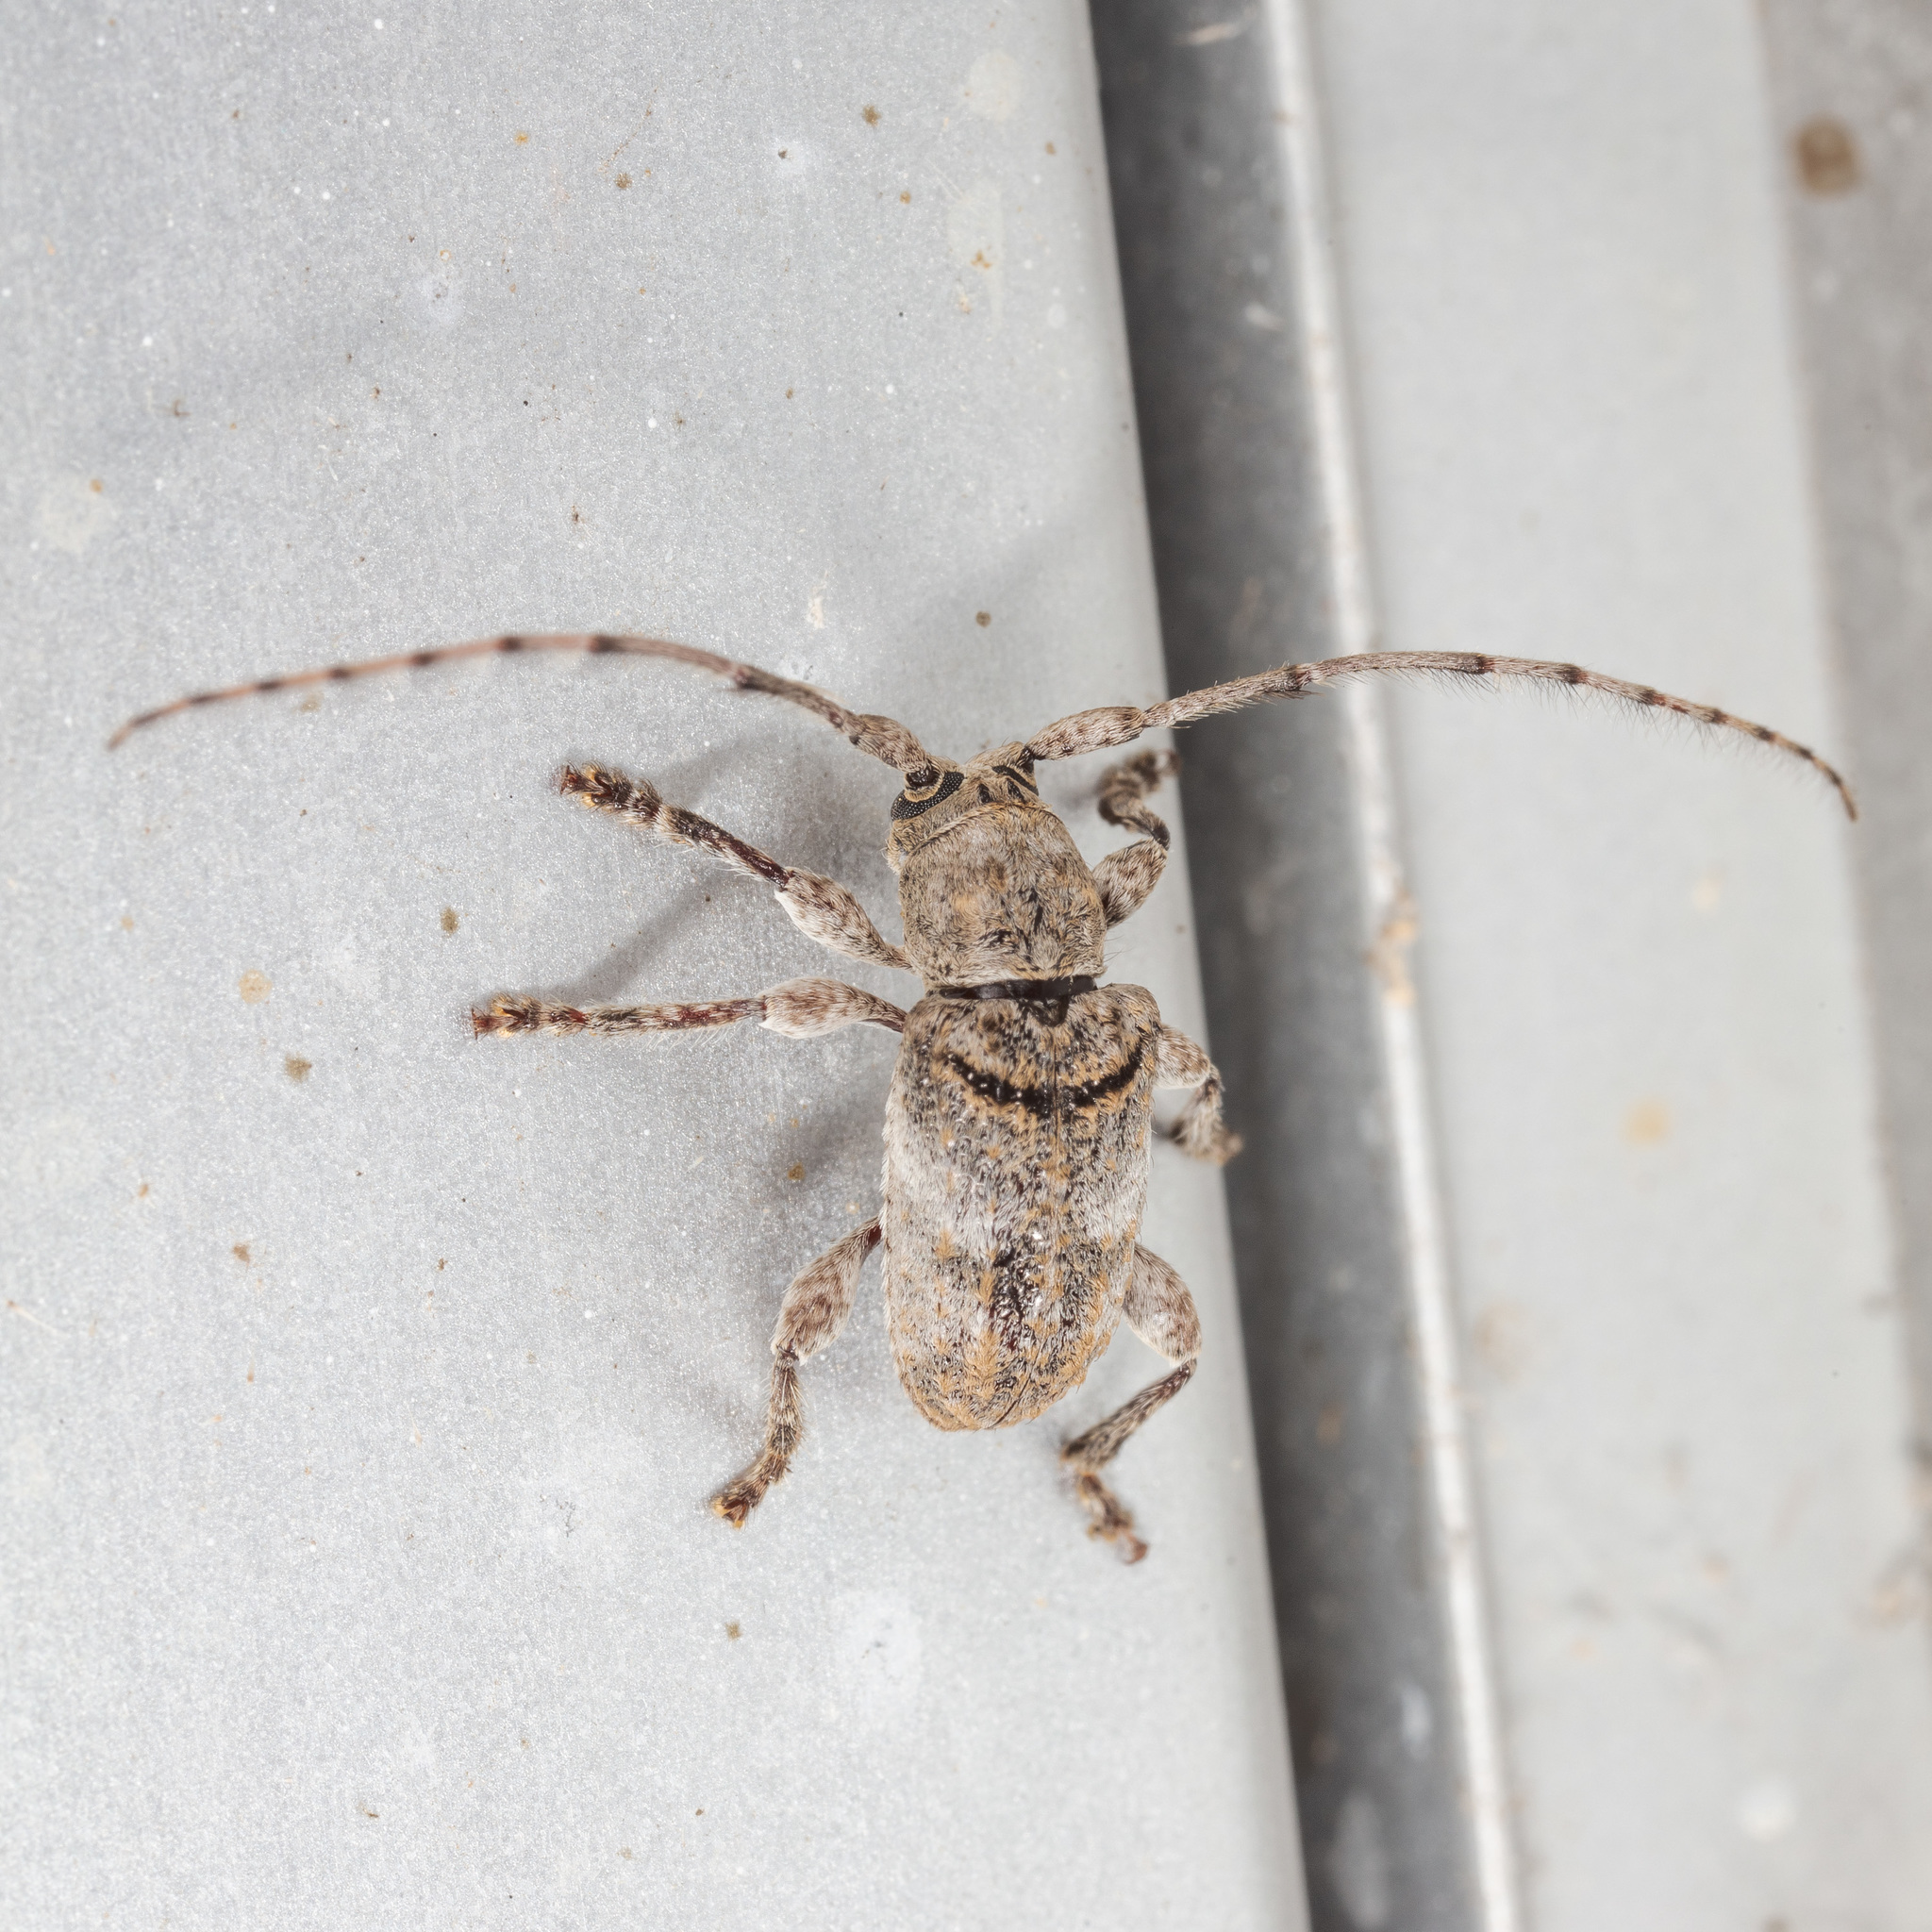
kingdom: Animalia
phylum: Arthropoda
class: Insecta
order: Coleoptera
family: Cerambycidae
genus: Ecyrus
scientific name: Ecyrus dasycerus
